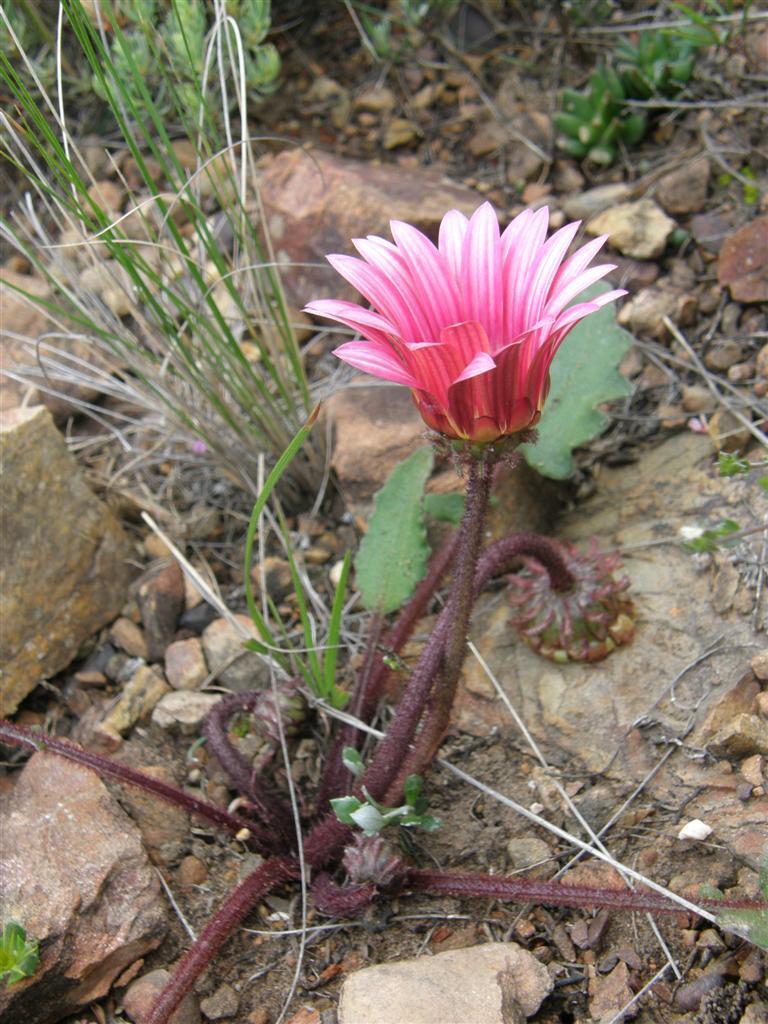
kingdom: Plantae
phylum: Tracheophyta
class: Magnoliopsida
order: Asterales
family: Asteraceae
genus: Arctotis
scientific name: Arctotis acaulis
